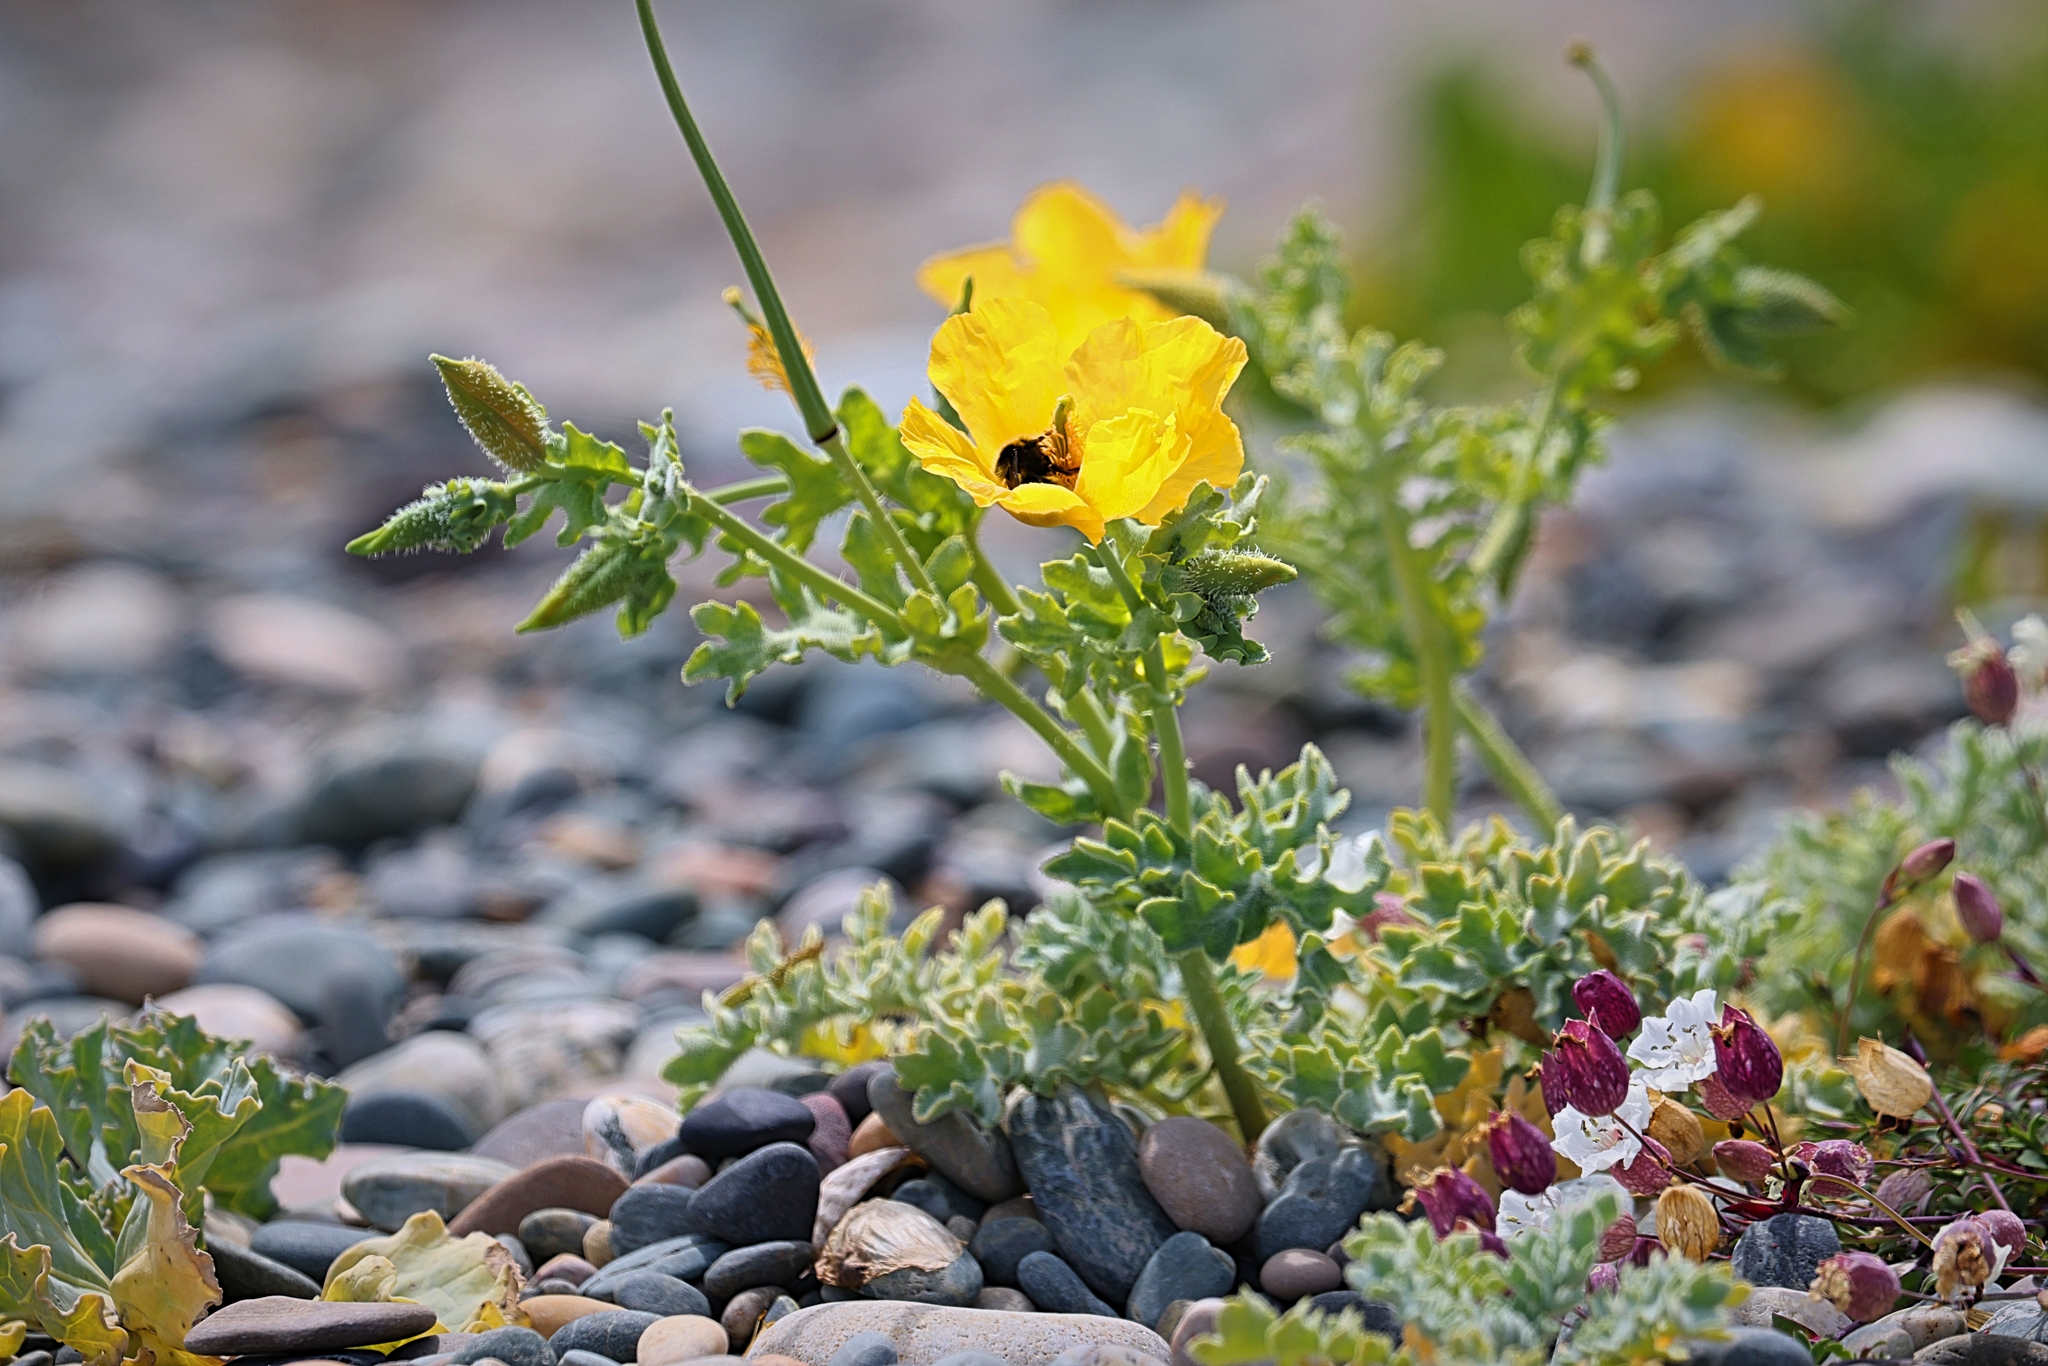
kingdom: Plantae
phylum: Tracheophyta
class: Magnoliopsida
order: Ranunculales
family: Papaveraceae
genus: Glaucium
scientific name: Glaucium flavum
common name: Yellow horned-poppy
